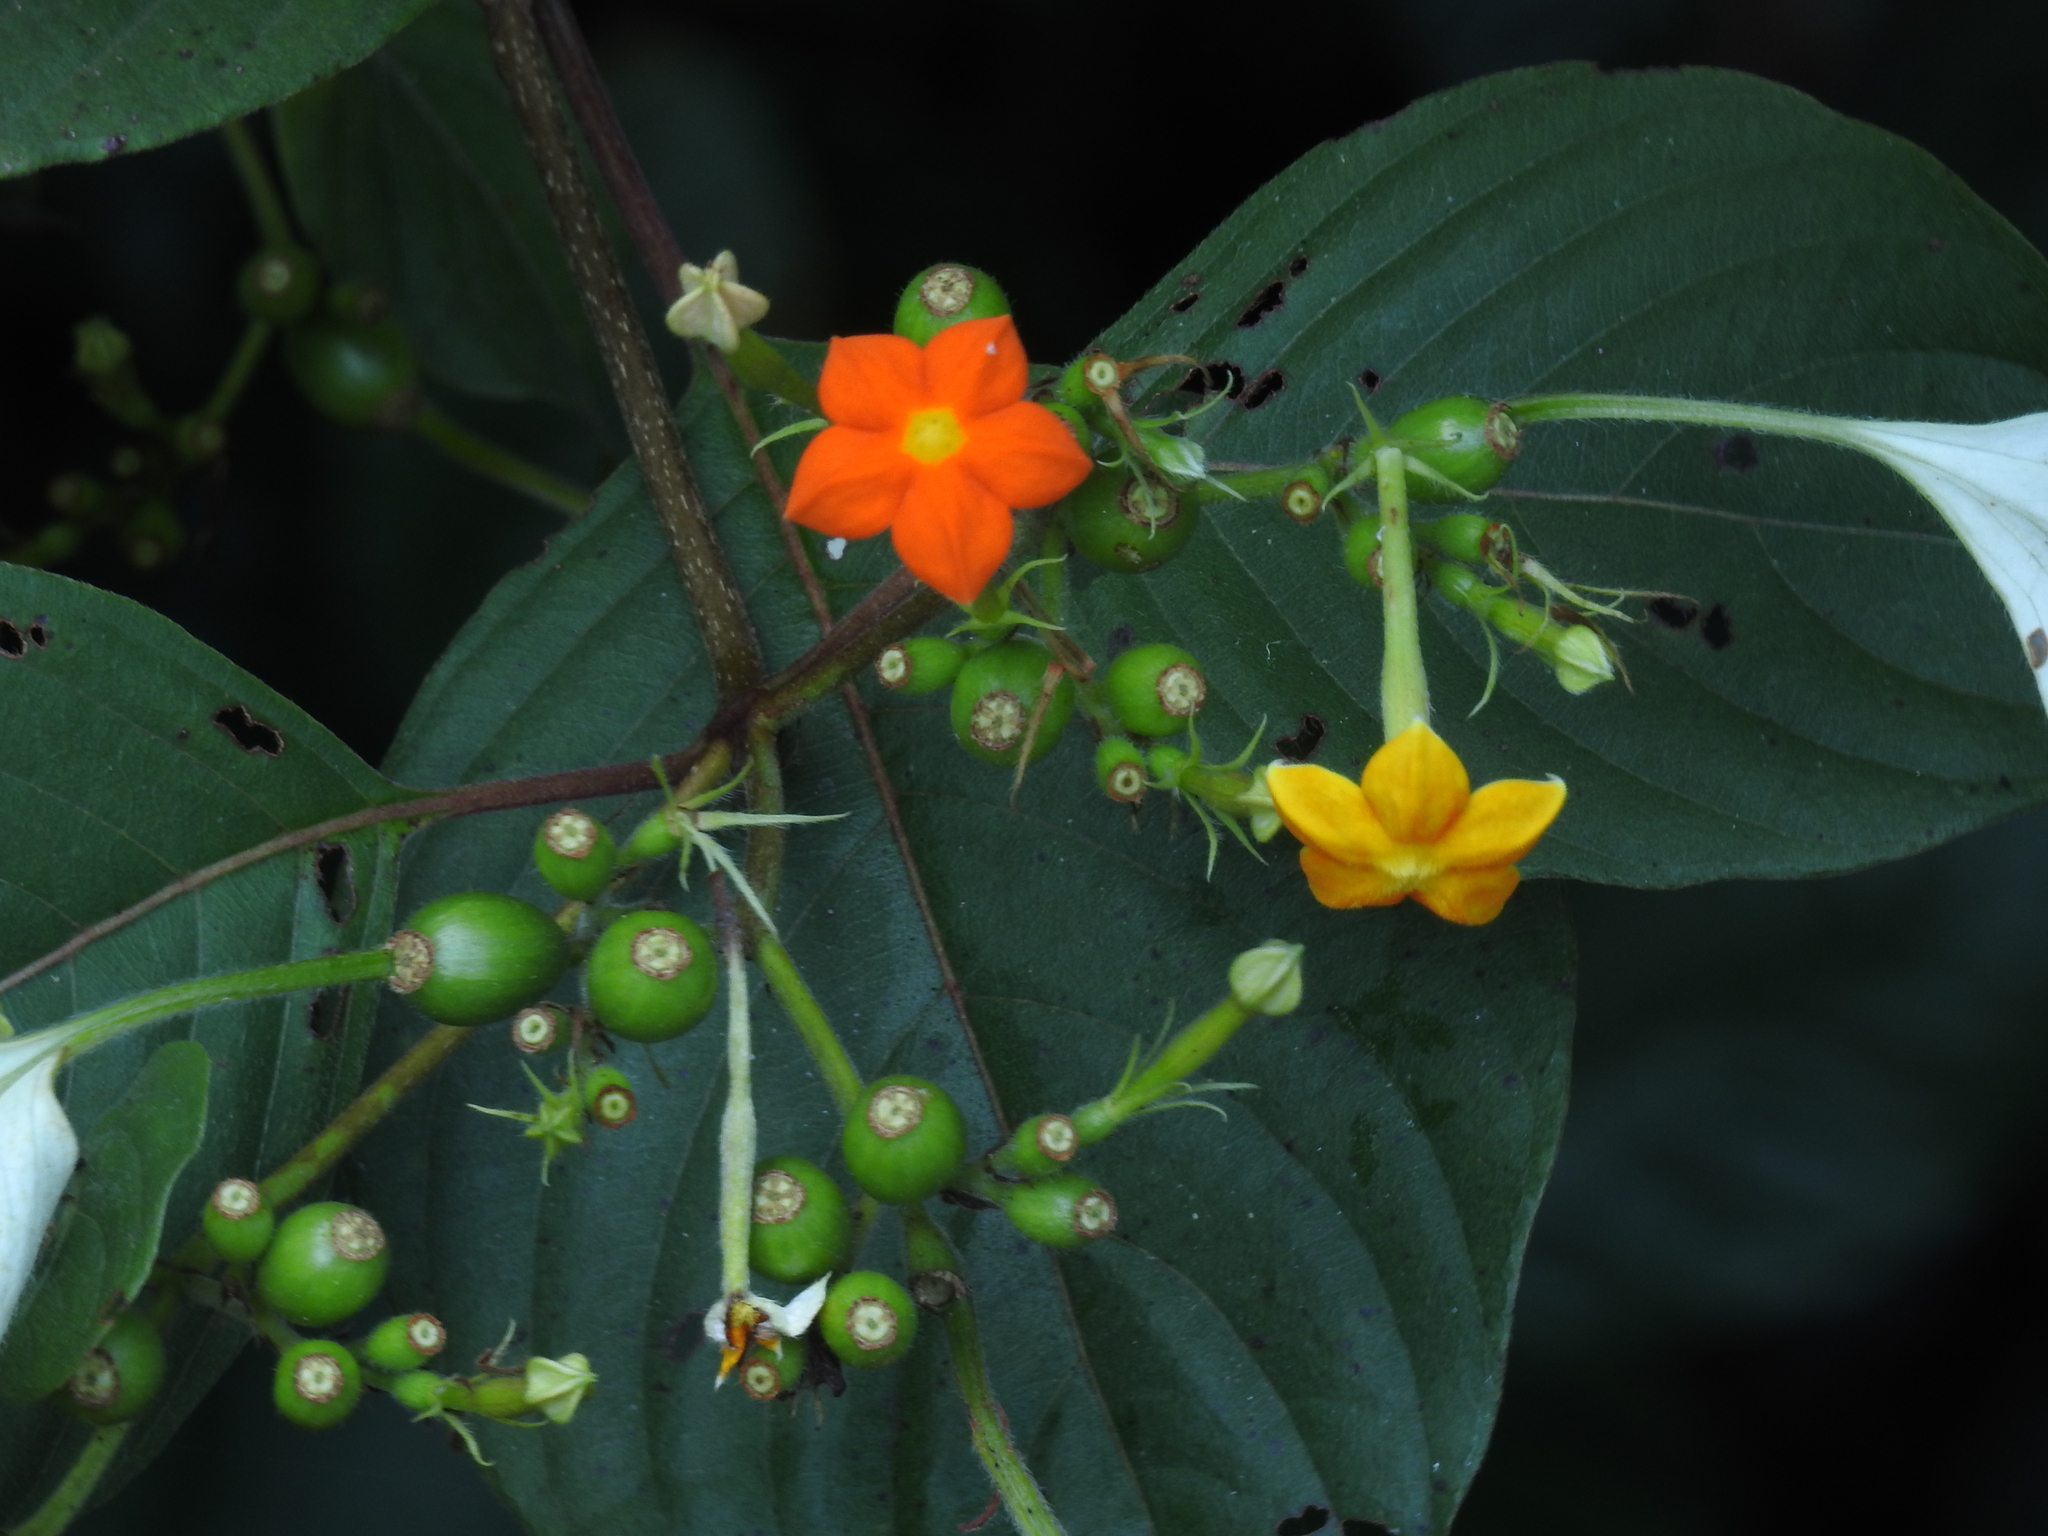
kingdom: Plantae
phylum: Tracheophyta
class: Magnoliopsida
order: Gentianales
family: Rubiaceae
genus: Mussaenda
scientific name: Mussaenda frondosa
